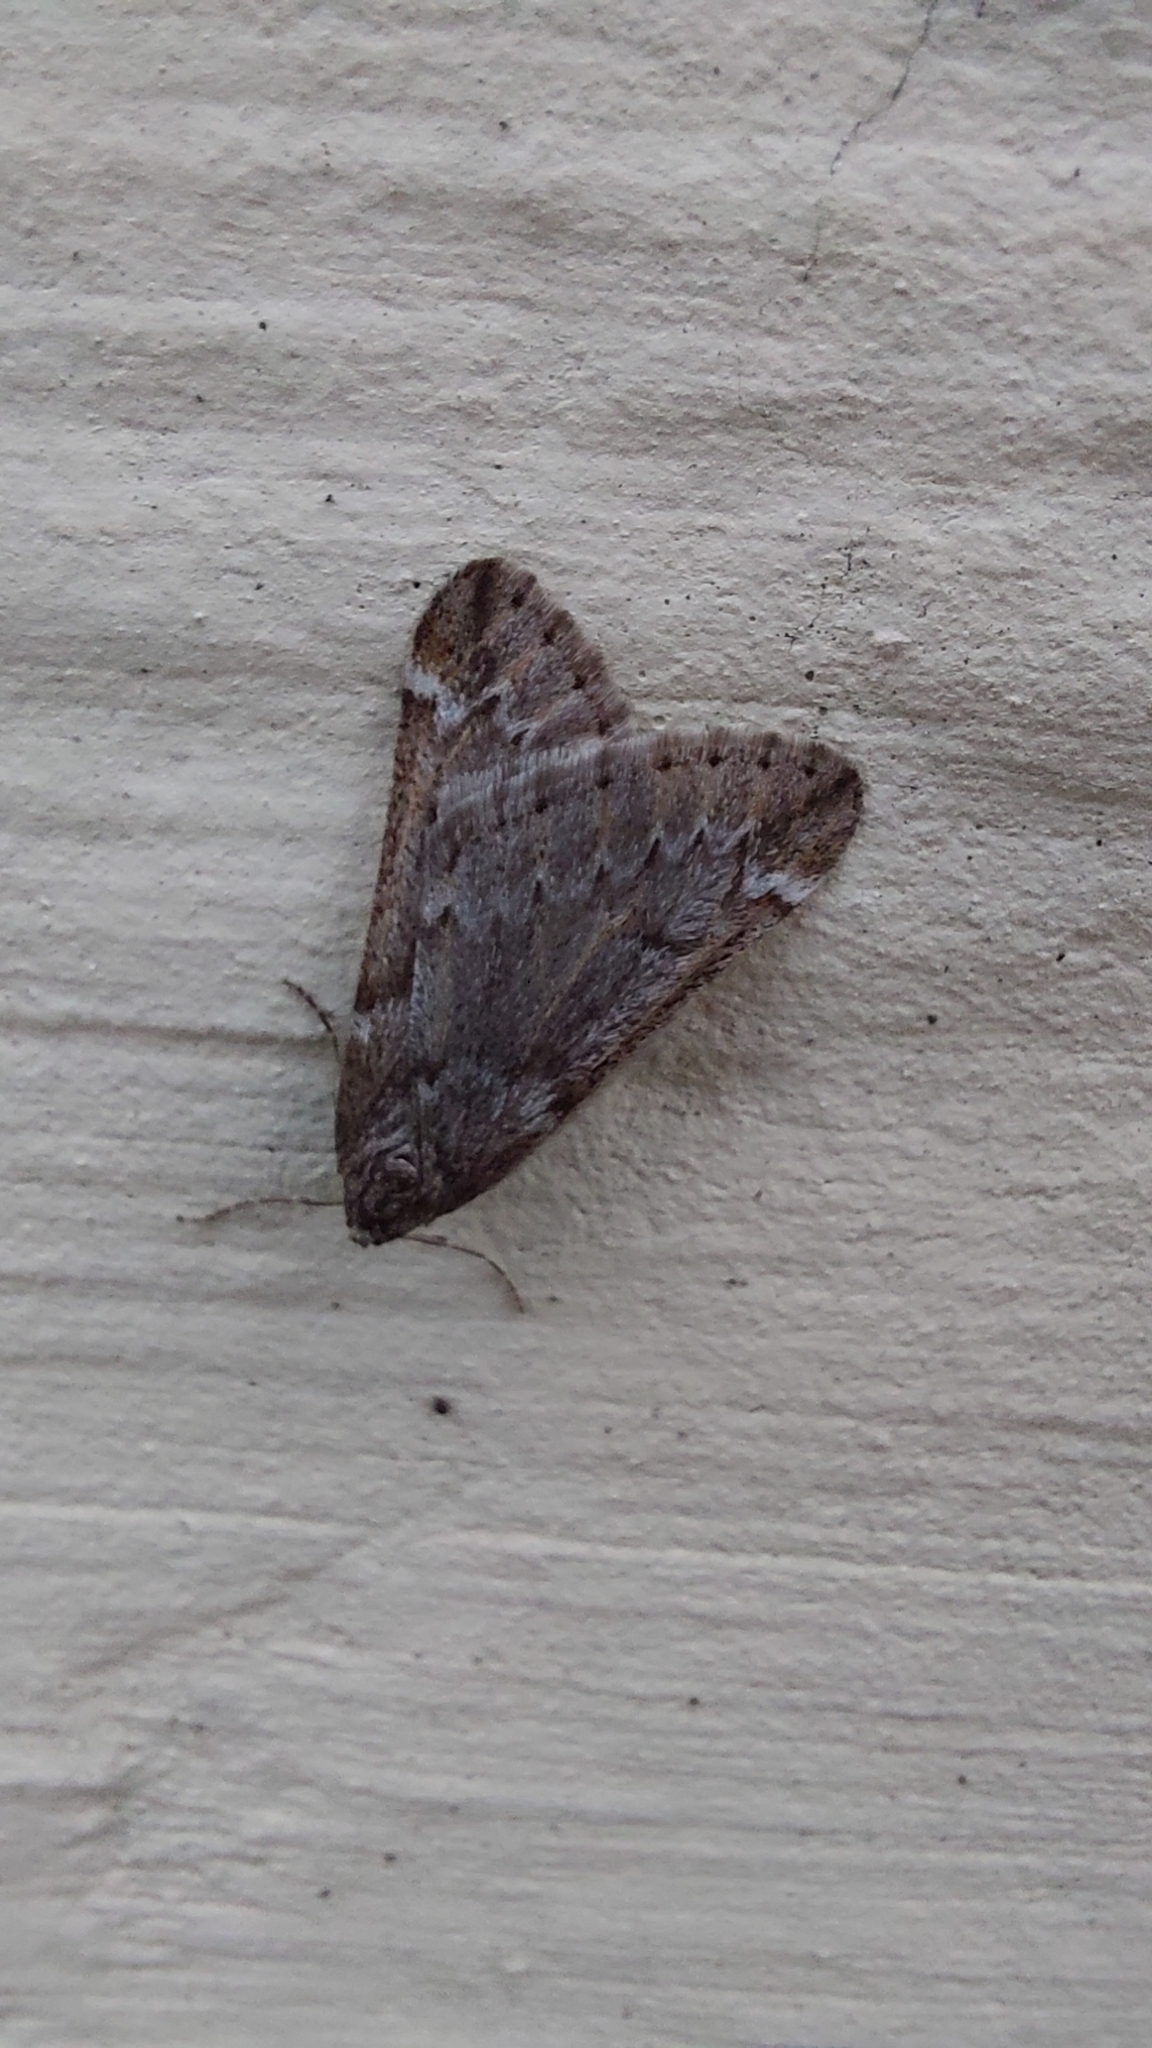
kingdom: Animalia
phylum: Arthropoda
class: Insecta
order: Lepidoptera
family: Geometridae
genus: Alsophila
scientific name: Alsophila aescularia
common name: March moth
